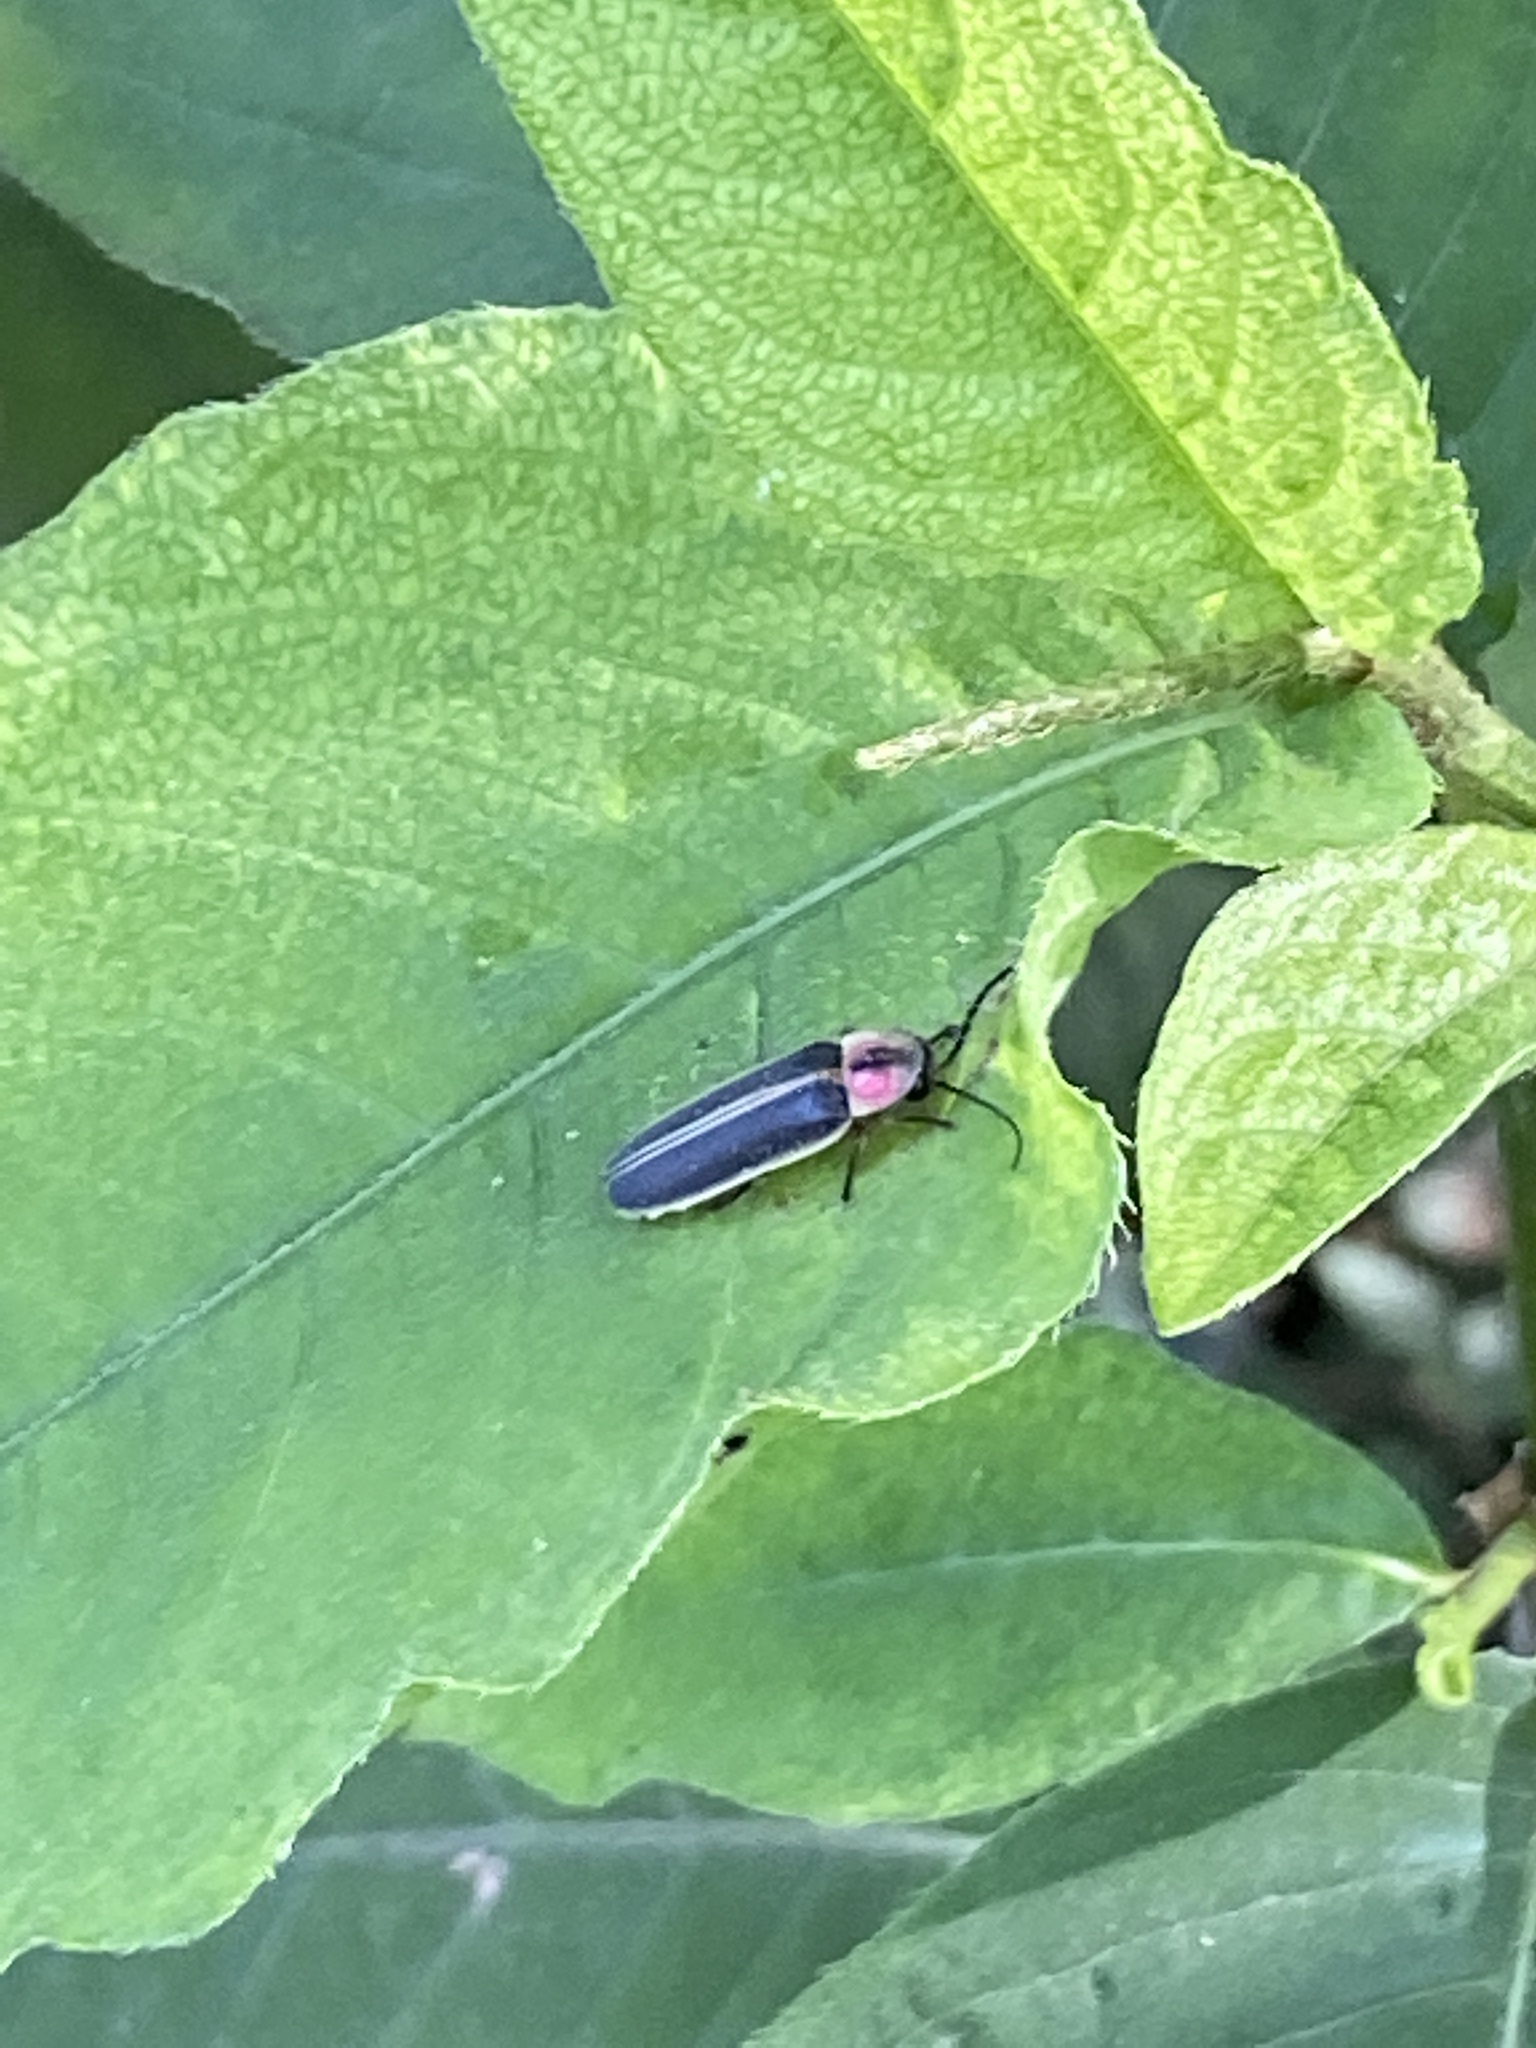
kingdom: Animalia
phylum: Arthropoda
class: Insecta
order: Coleoptera
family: Lampyridae
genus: Photinus
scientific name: Photinus pyralis
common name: Big dipper firefly
